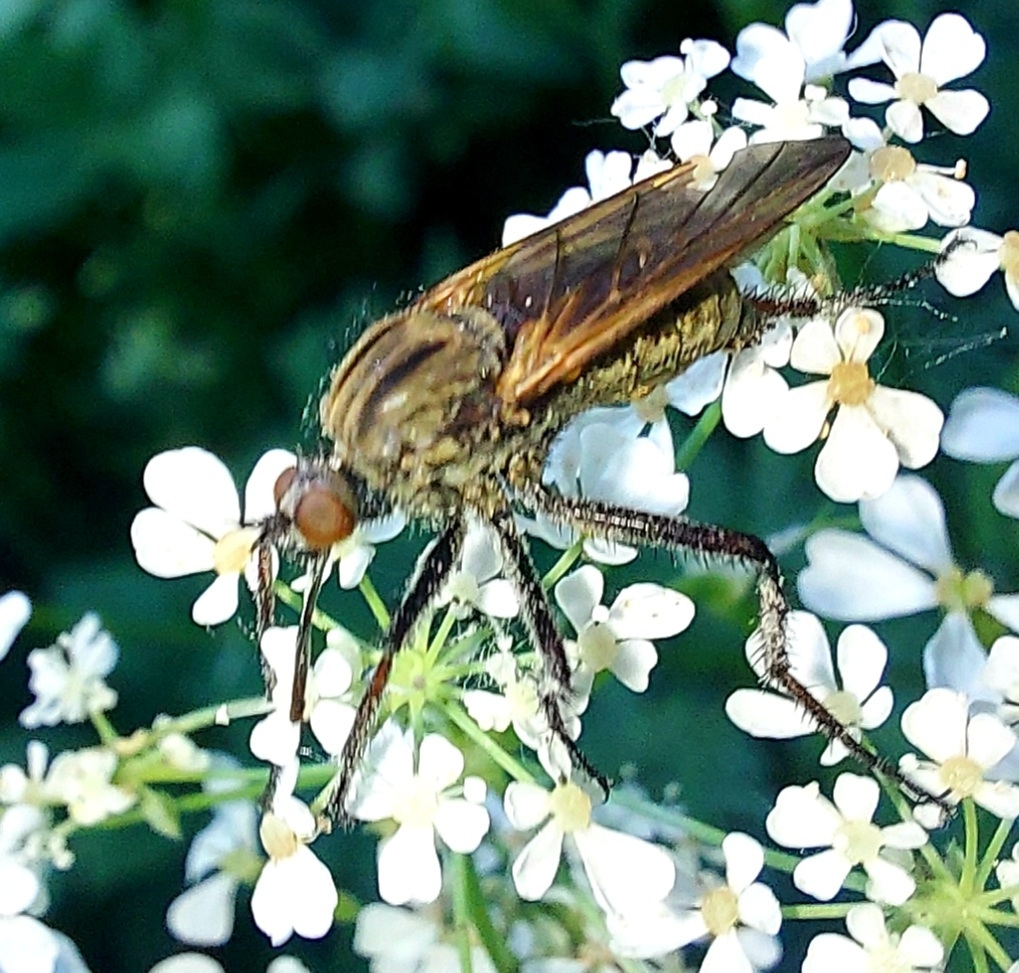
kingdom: Animalia
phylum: Arthropoda
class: Insecta
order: Diptera
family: Empididae
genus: Empis
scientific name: Empis tessellata
